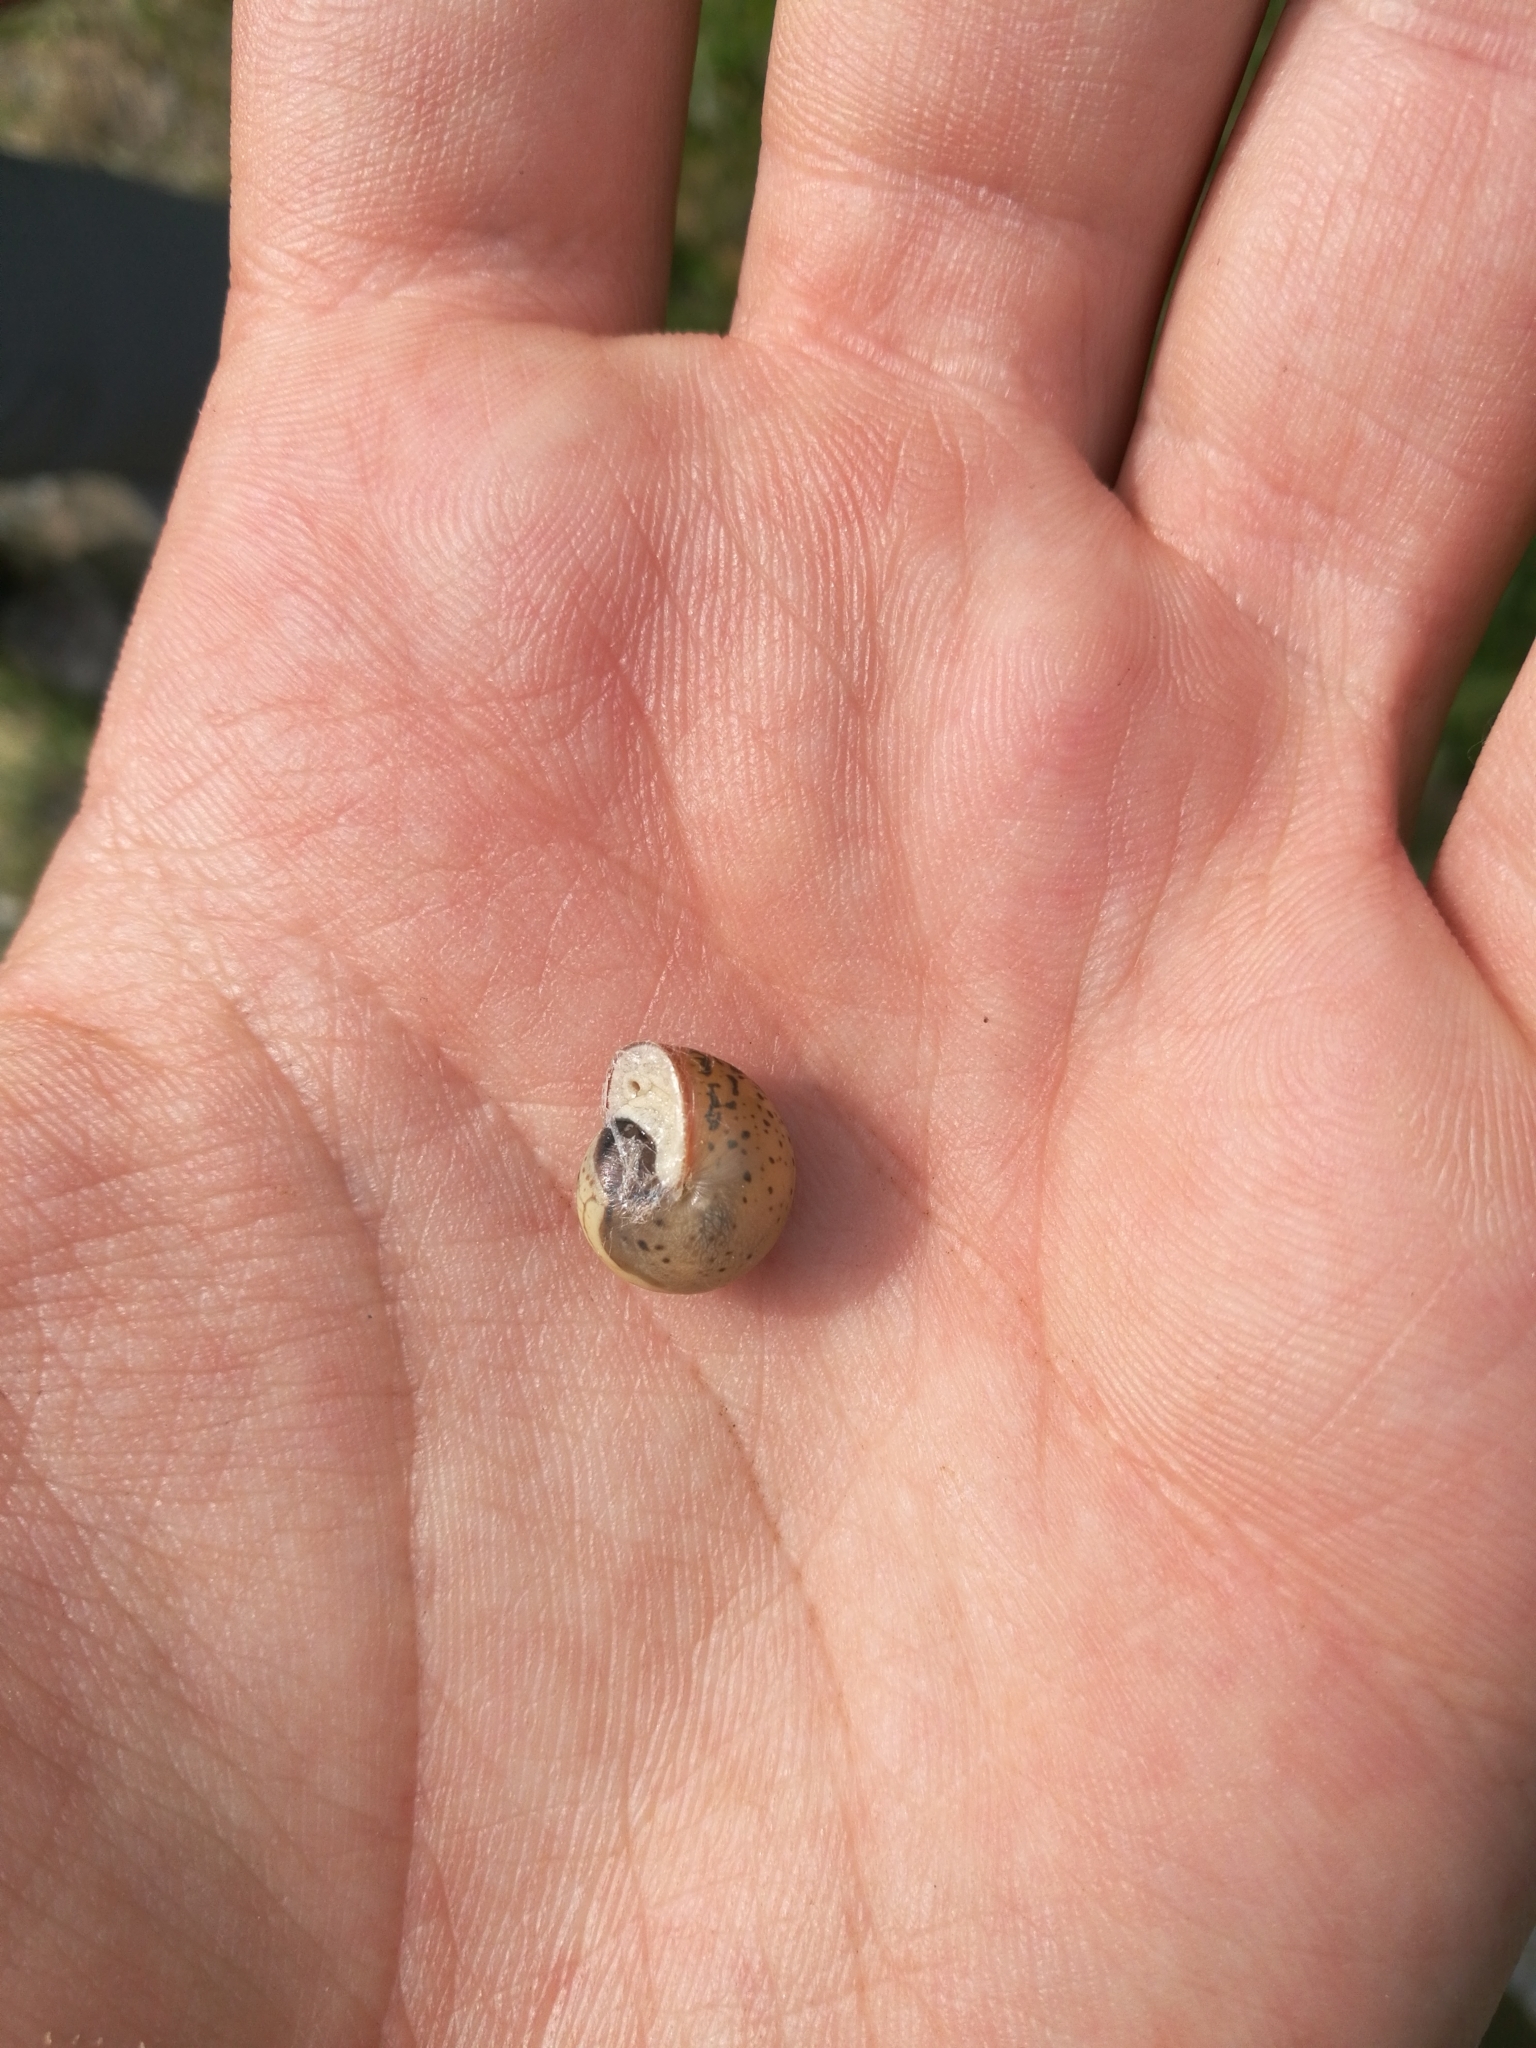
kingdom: Animalia
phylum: Mollusca
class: Gastropoda
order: Stylommatophora
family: Hygromiidae
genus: Monacha
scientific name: Monacha cartusiana
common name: Carthusian snail
